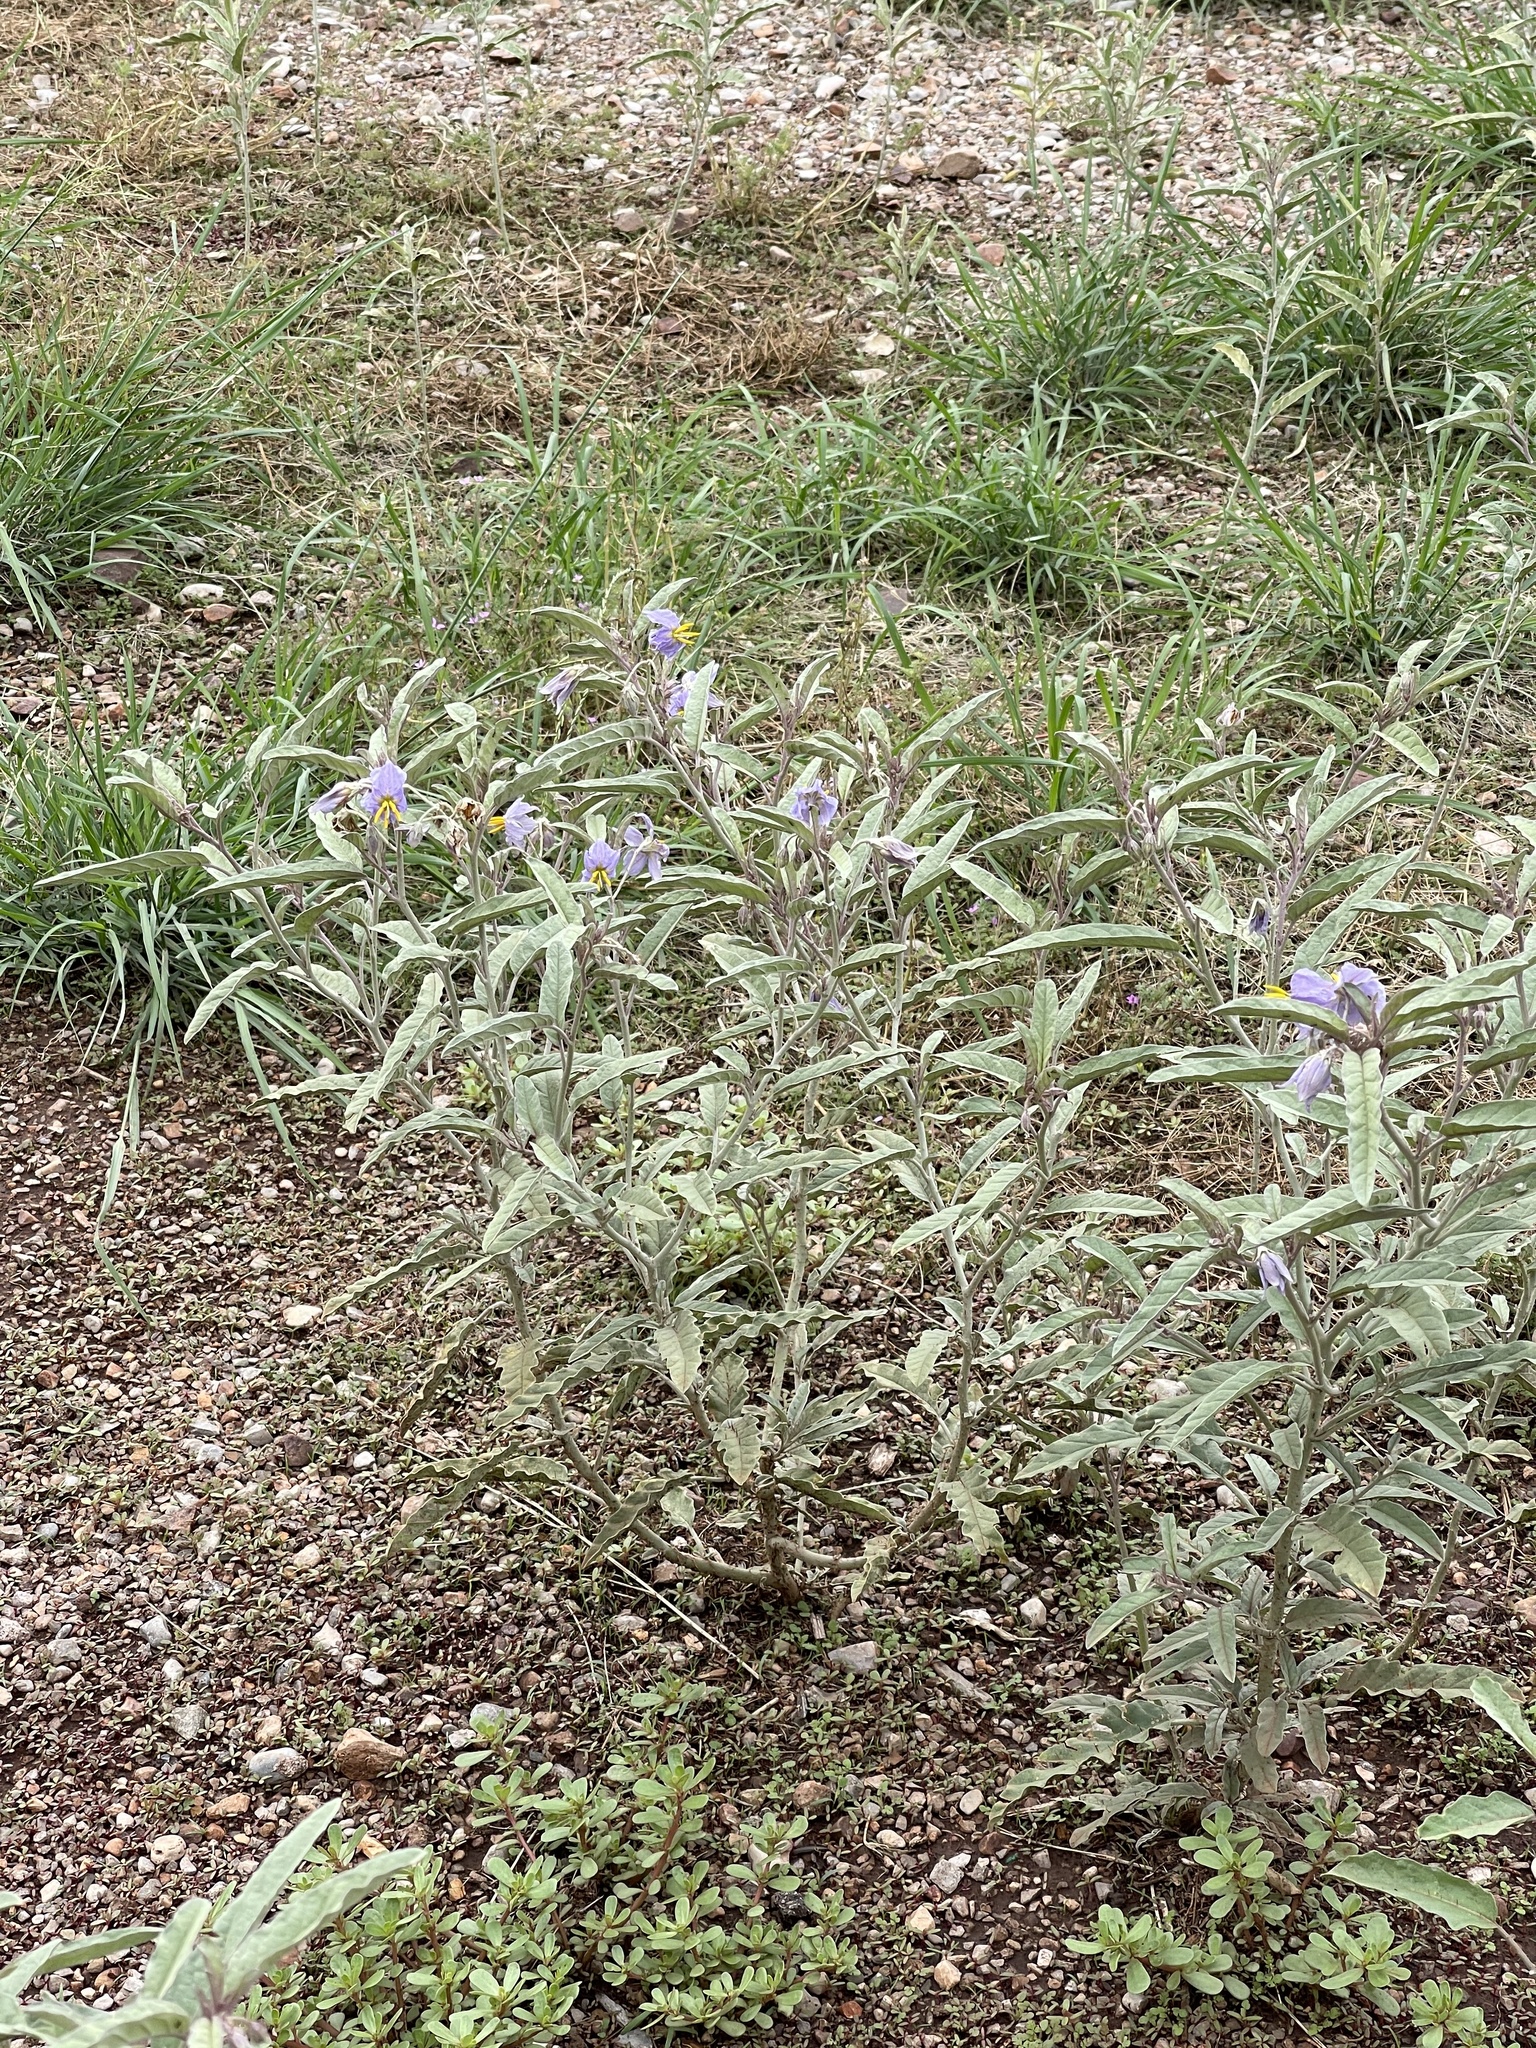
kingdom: Plantae
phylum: Tracheophyta
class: Magnoliopsida
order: Solanales
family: Solanaceae
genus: Solanum
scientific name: Solanum elaeagnifolium
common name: Silverleaf nightshade
